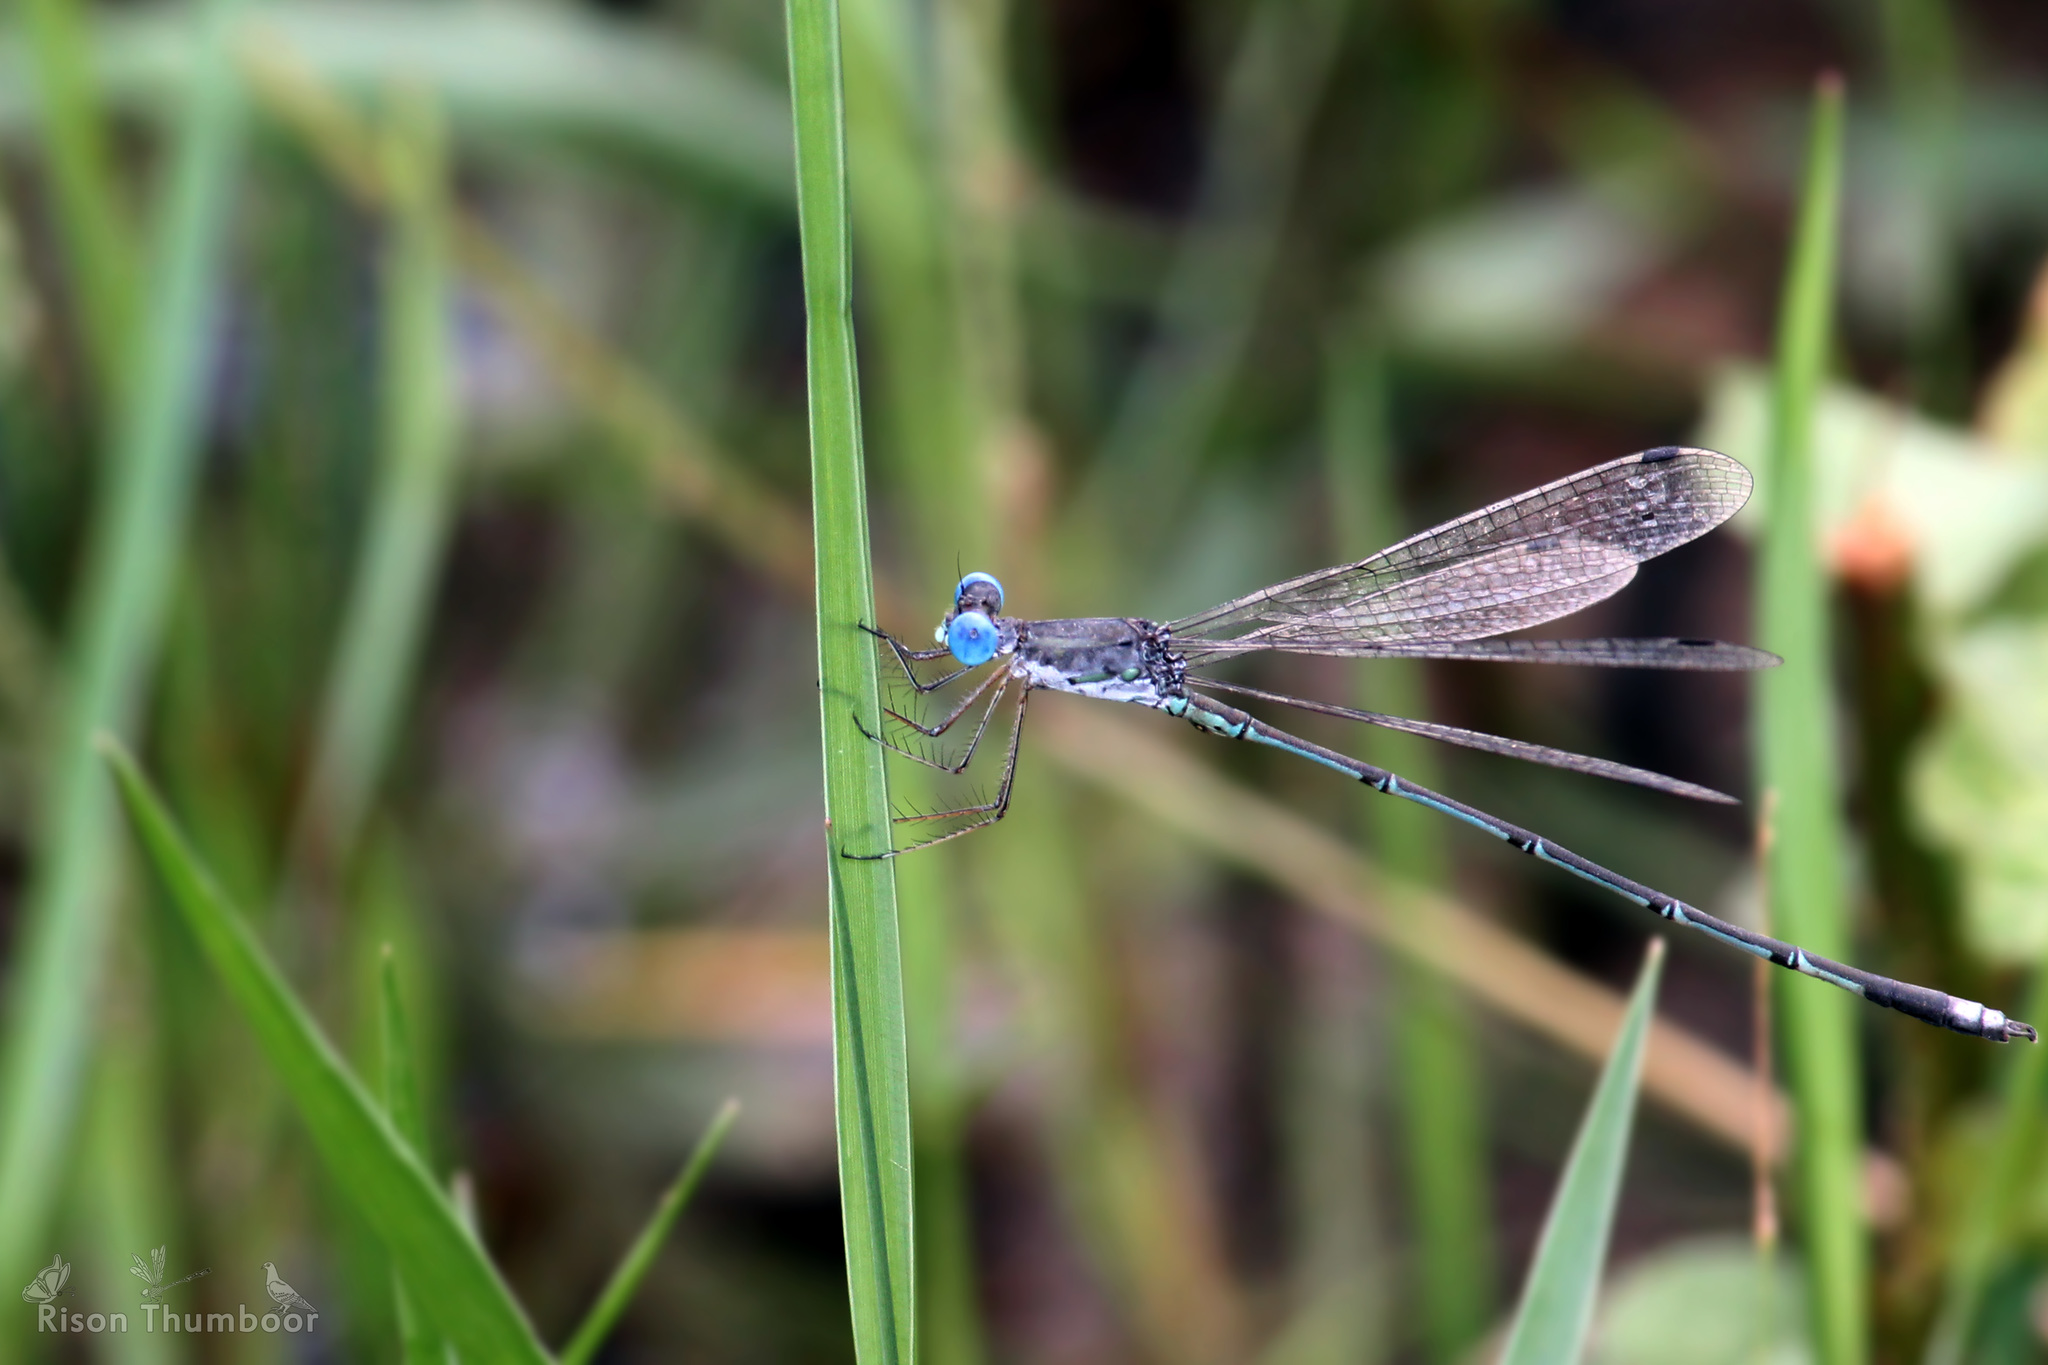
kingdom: Animalia
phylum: Arthropoda
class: Insecta
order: Odonata
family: Lestidae
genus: Lestes
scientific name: Lestes elatus
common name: Emerald spreadwing
